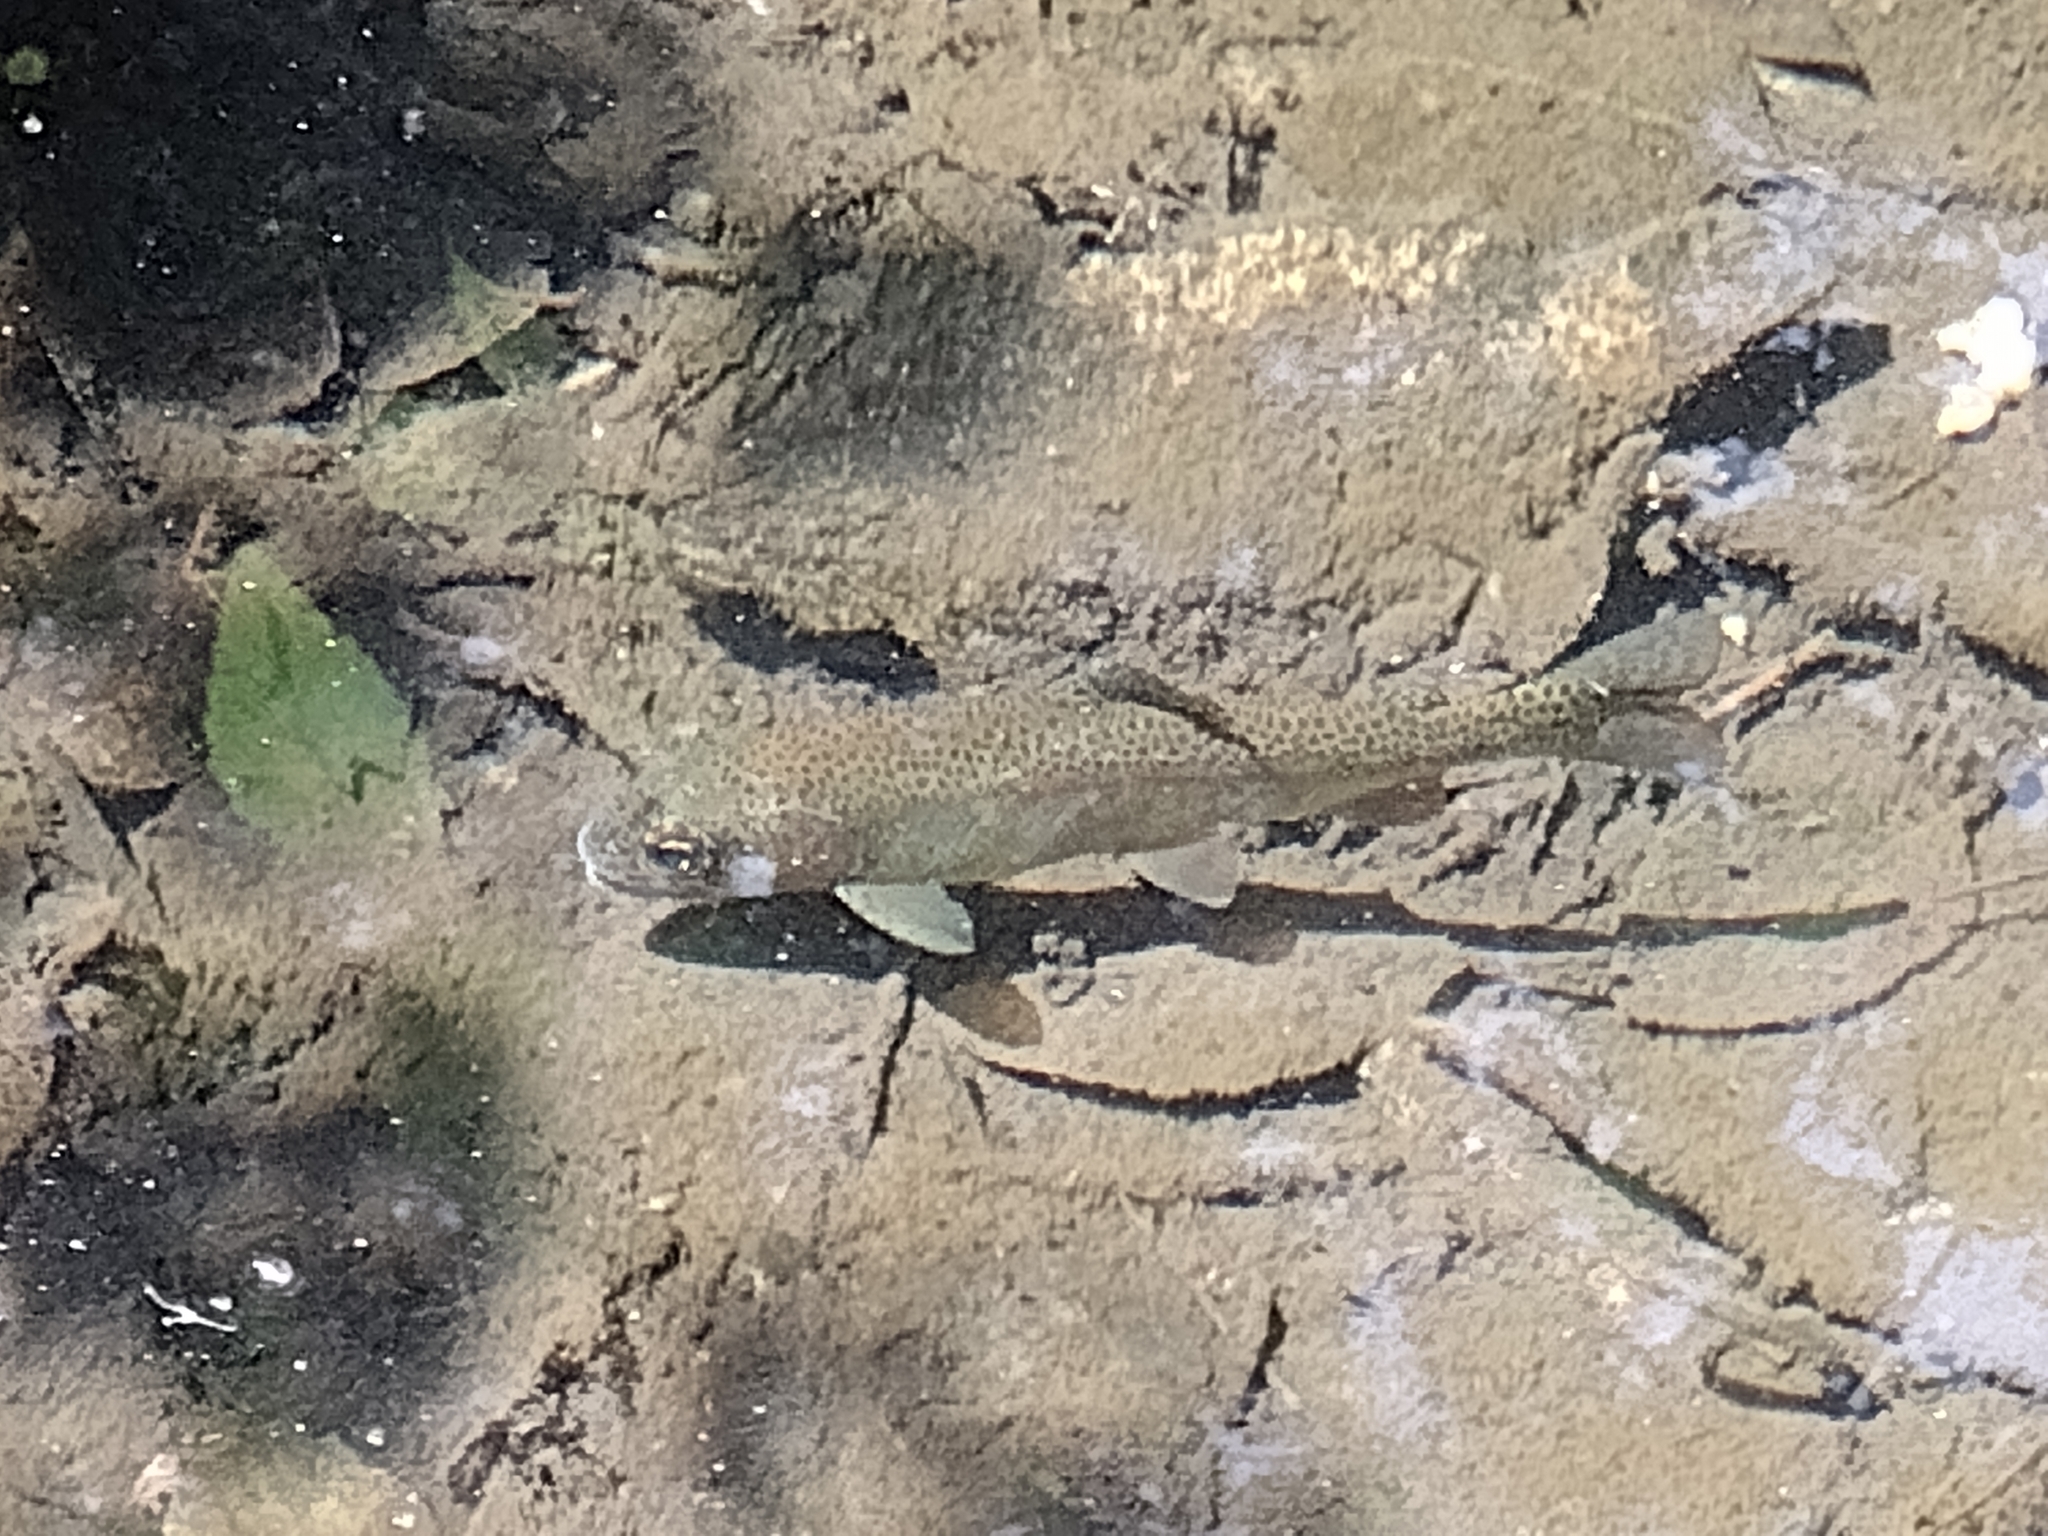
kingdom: Animalia
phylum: Chordata
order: Salmoniformes
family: Salmonidae
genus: Oncorhynchus
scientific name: Oncorhynchus mykiss
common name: Rainbow trout
